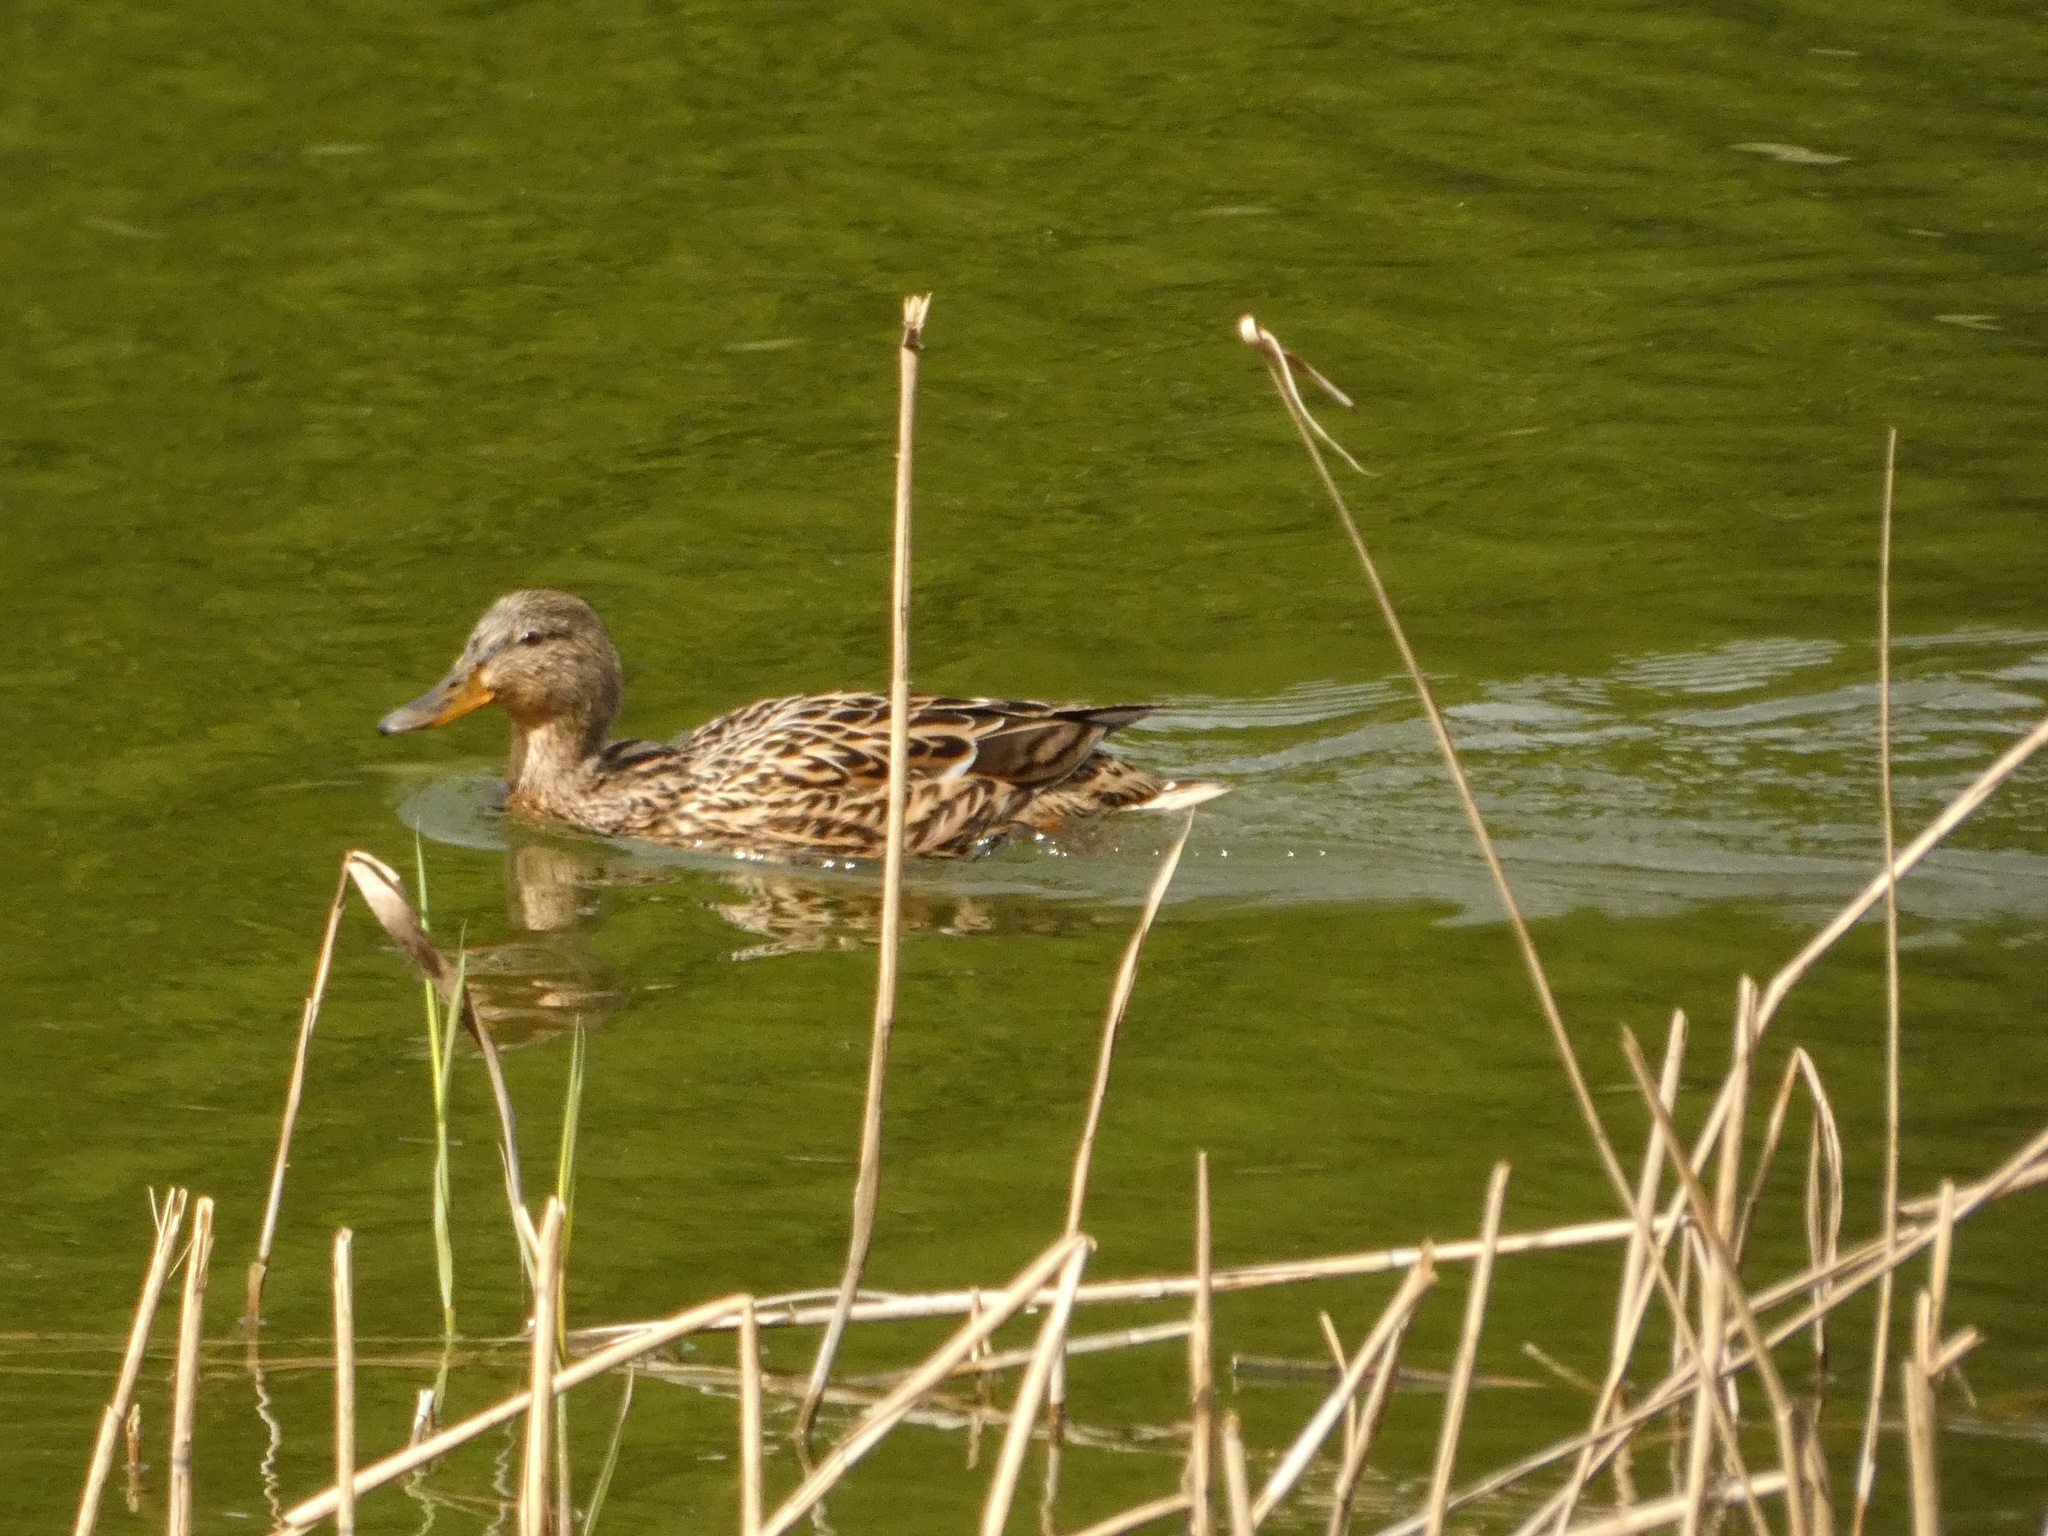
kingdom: Animalia
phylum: Chordata
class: Aves
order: Anseriformes
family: Anatidae
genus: Anas
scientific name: Anas platyrhynchos
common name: Mallard
